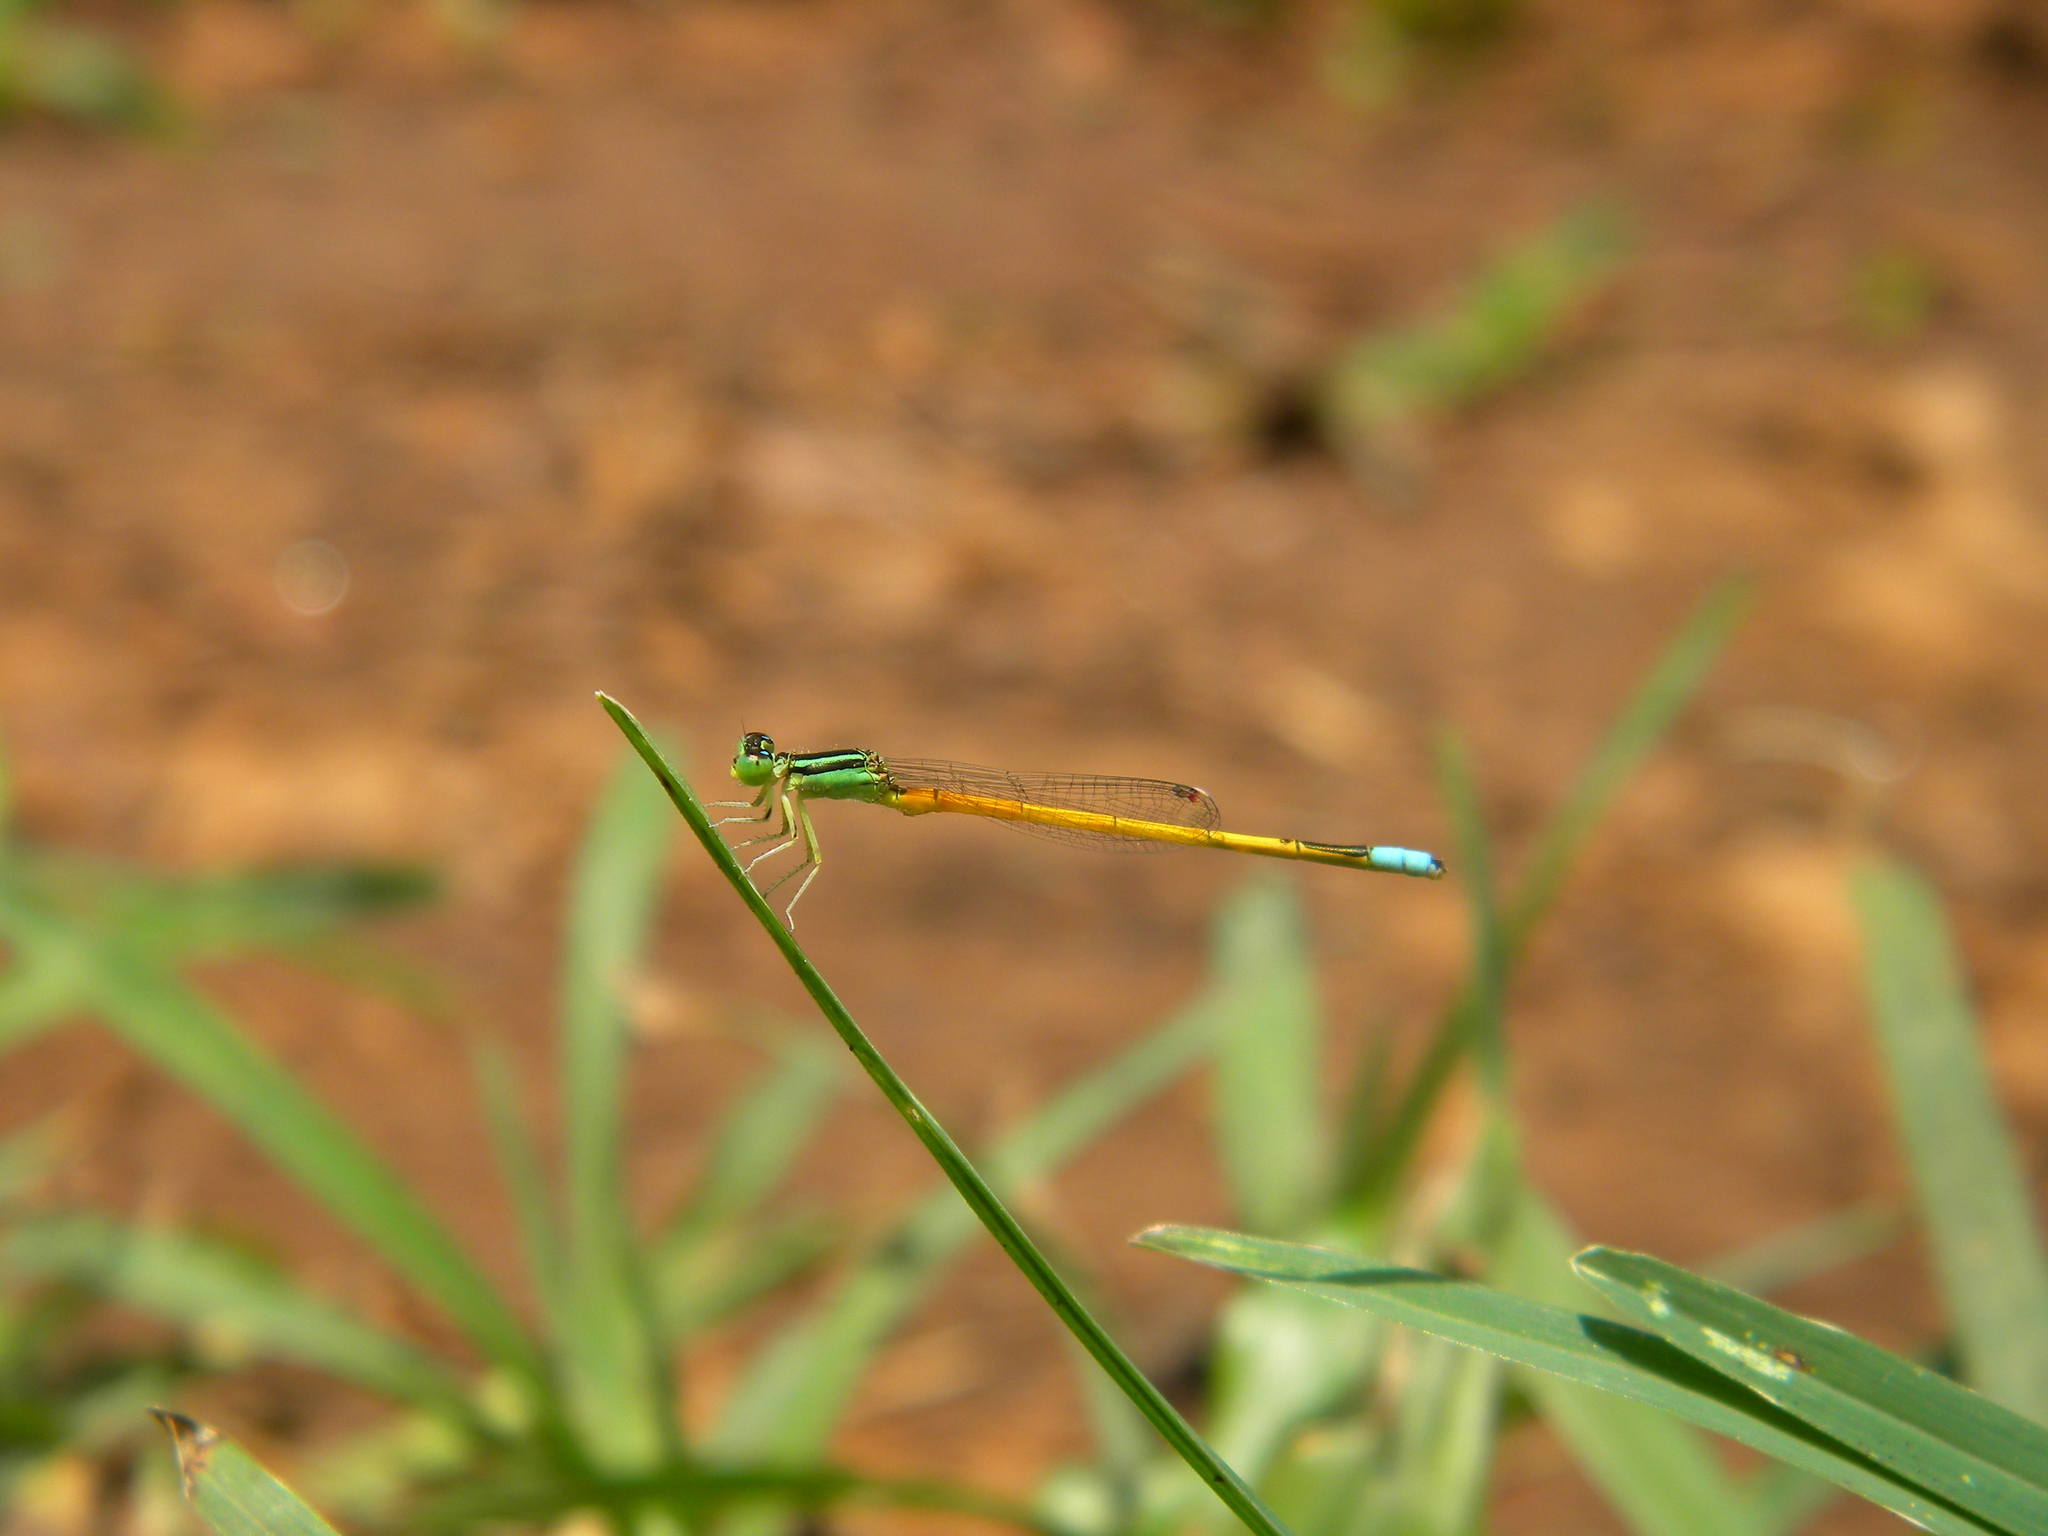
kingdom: Animalia
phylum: Arthropoda
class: Insecta
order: Odonata
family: Coenagrionidae
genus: Ischnura
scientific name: Ischnura rubilio
